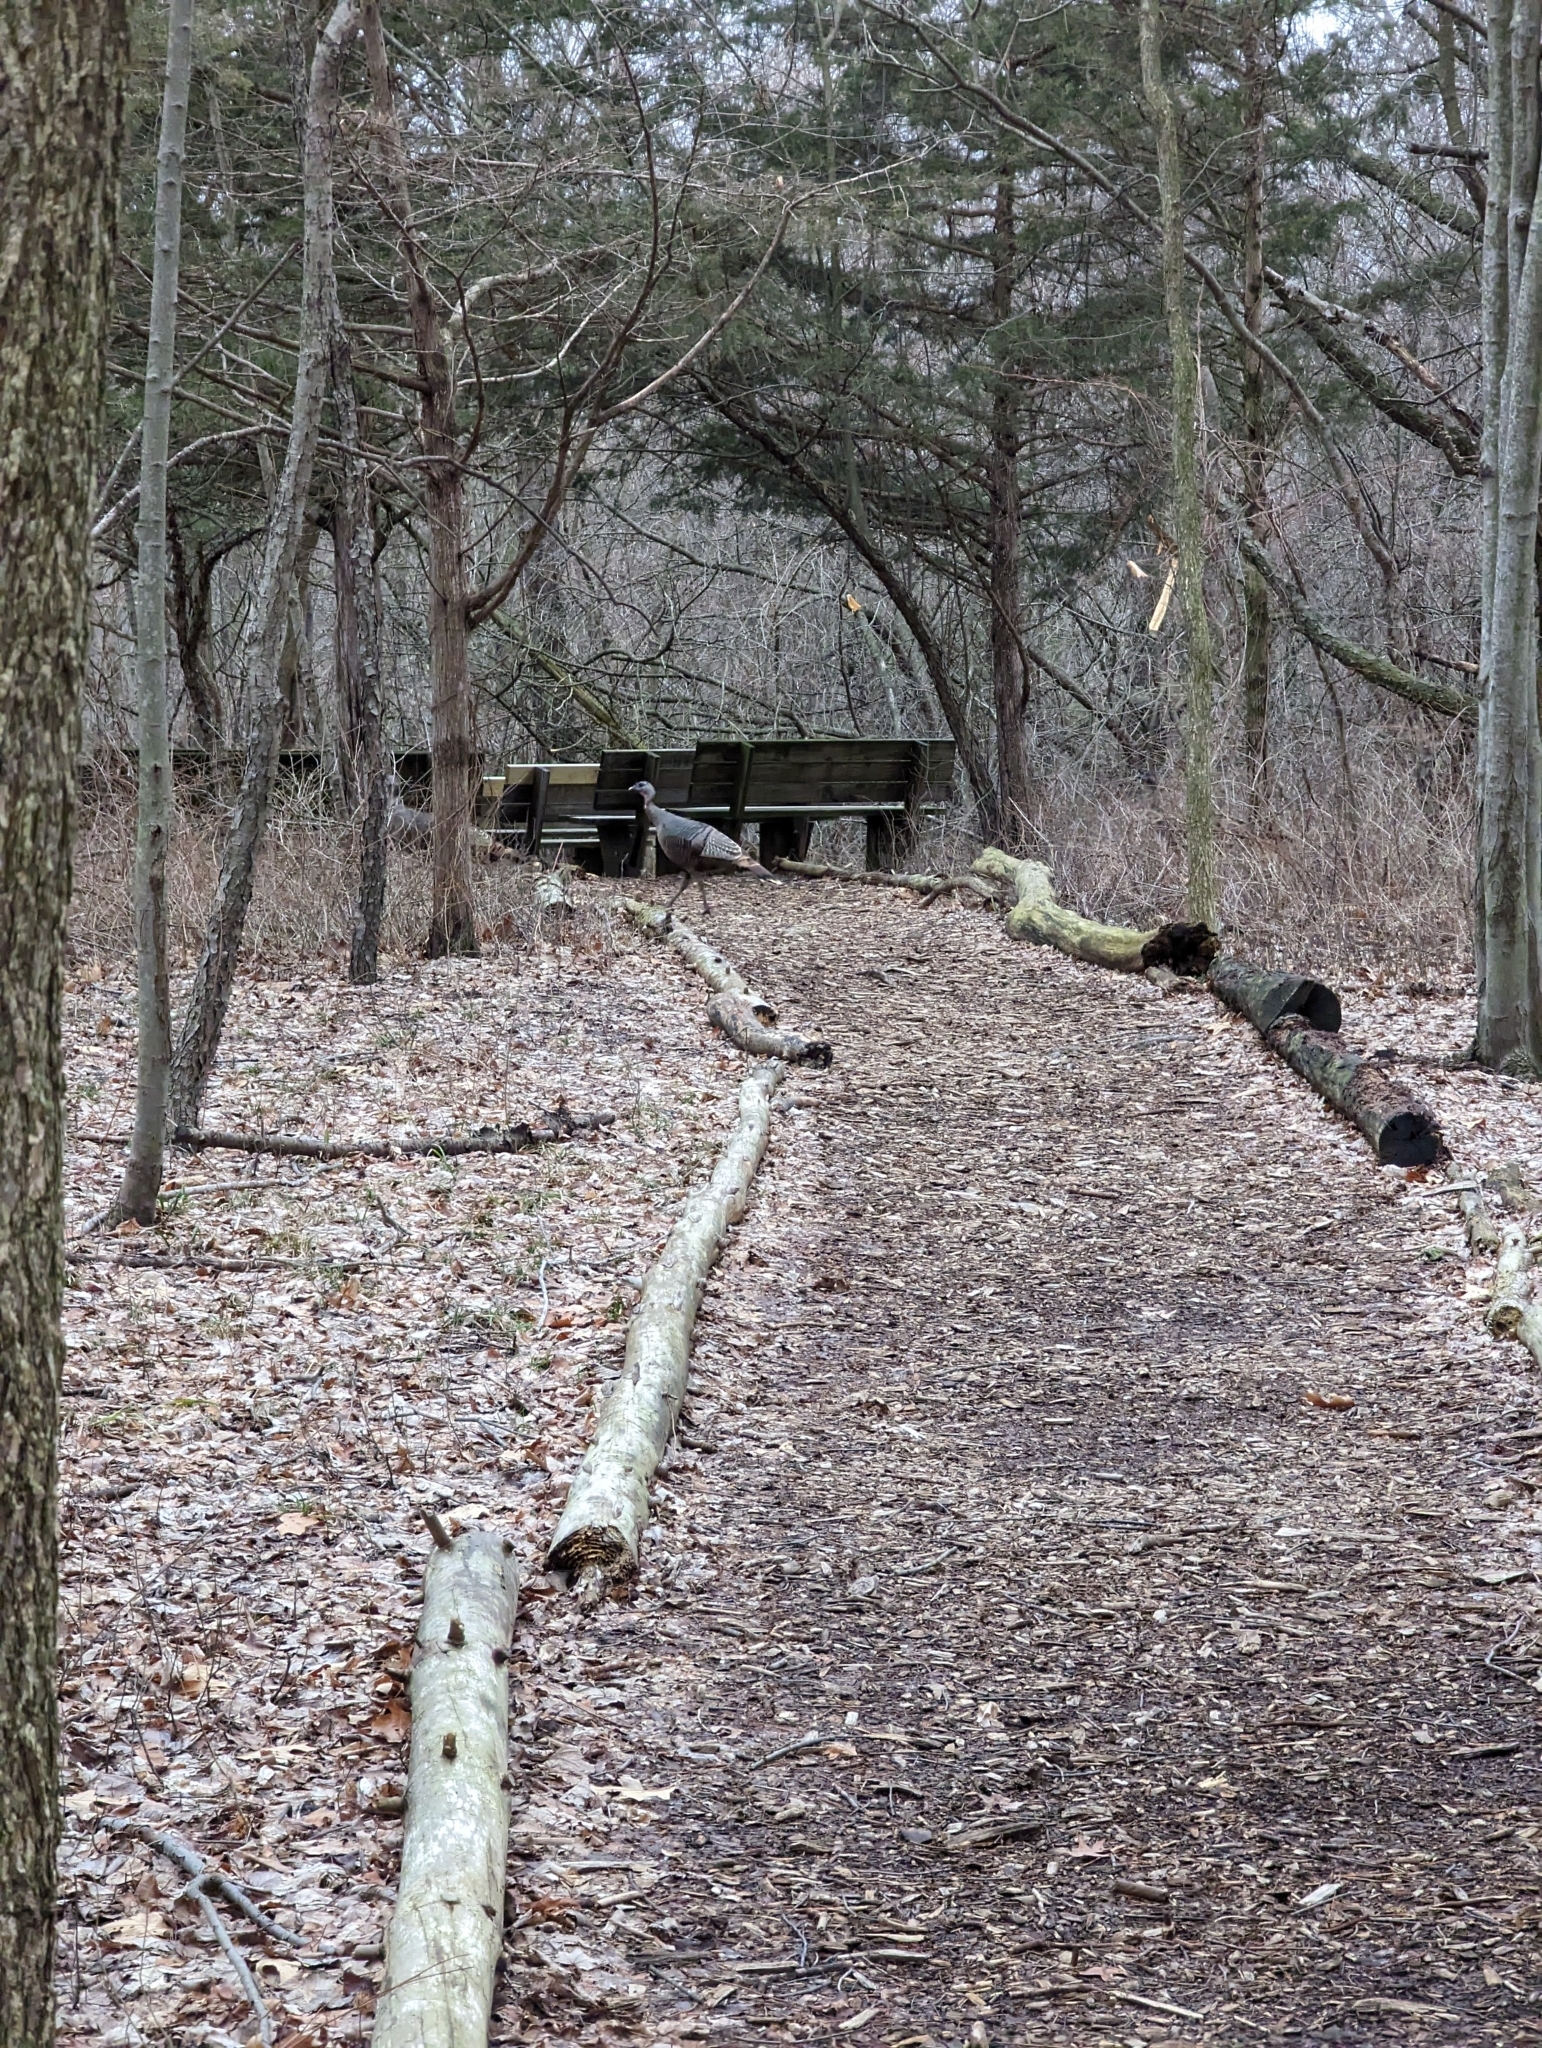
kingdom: Animalia
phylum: Chordata
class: Aves
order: Galliformes
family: Phasianidae
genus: Meleagris
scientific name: Meleagris gallopavo
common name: Wild turkey
